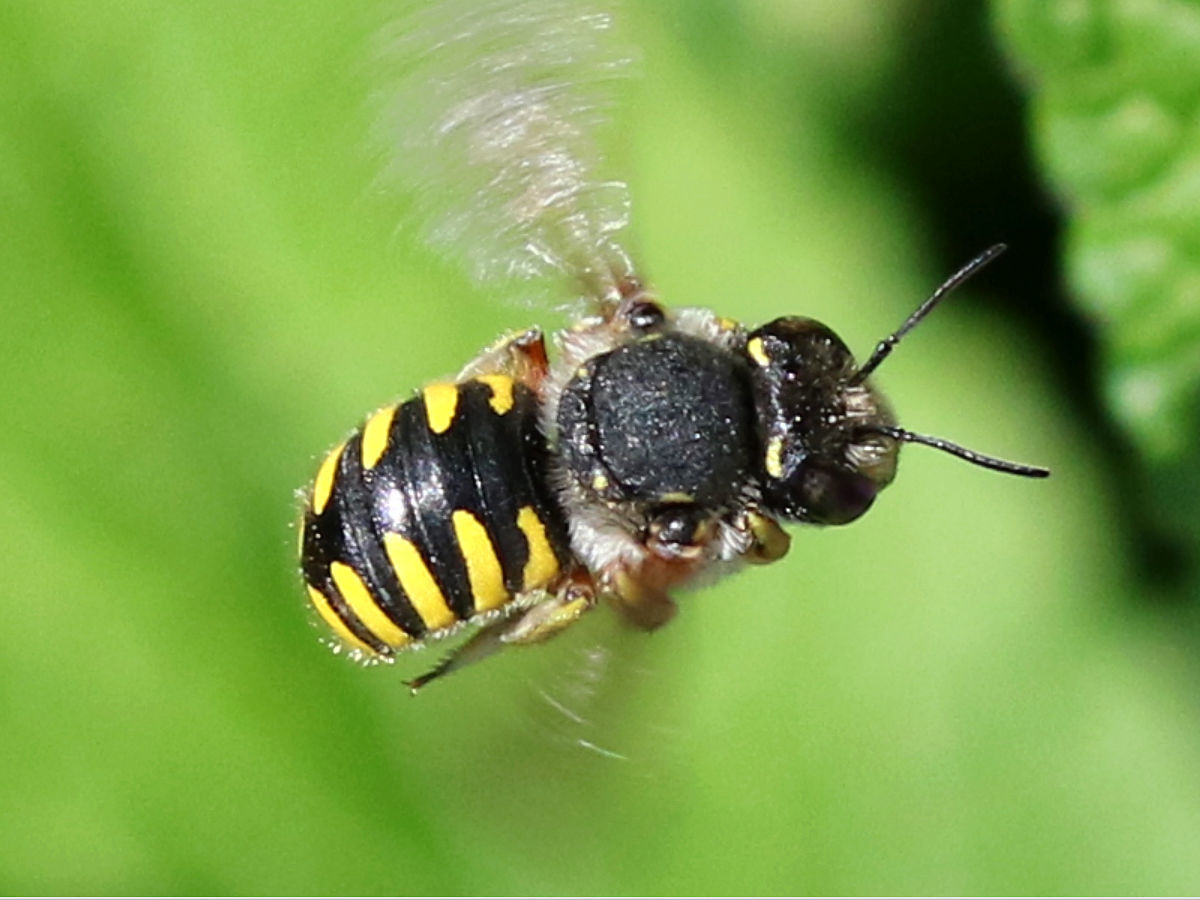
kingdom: Animalia
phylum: Arthropoda
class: Insecta
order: Hymenoptera
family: Megachilidae
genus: Anthidium
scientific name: Anthidium manicatum
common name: Wool carder bee
